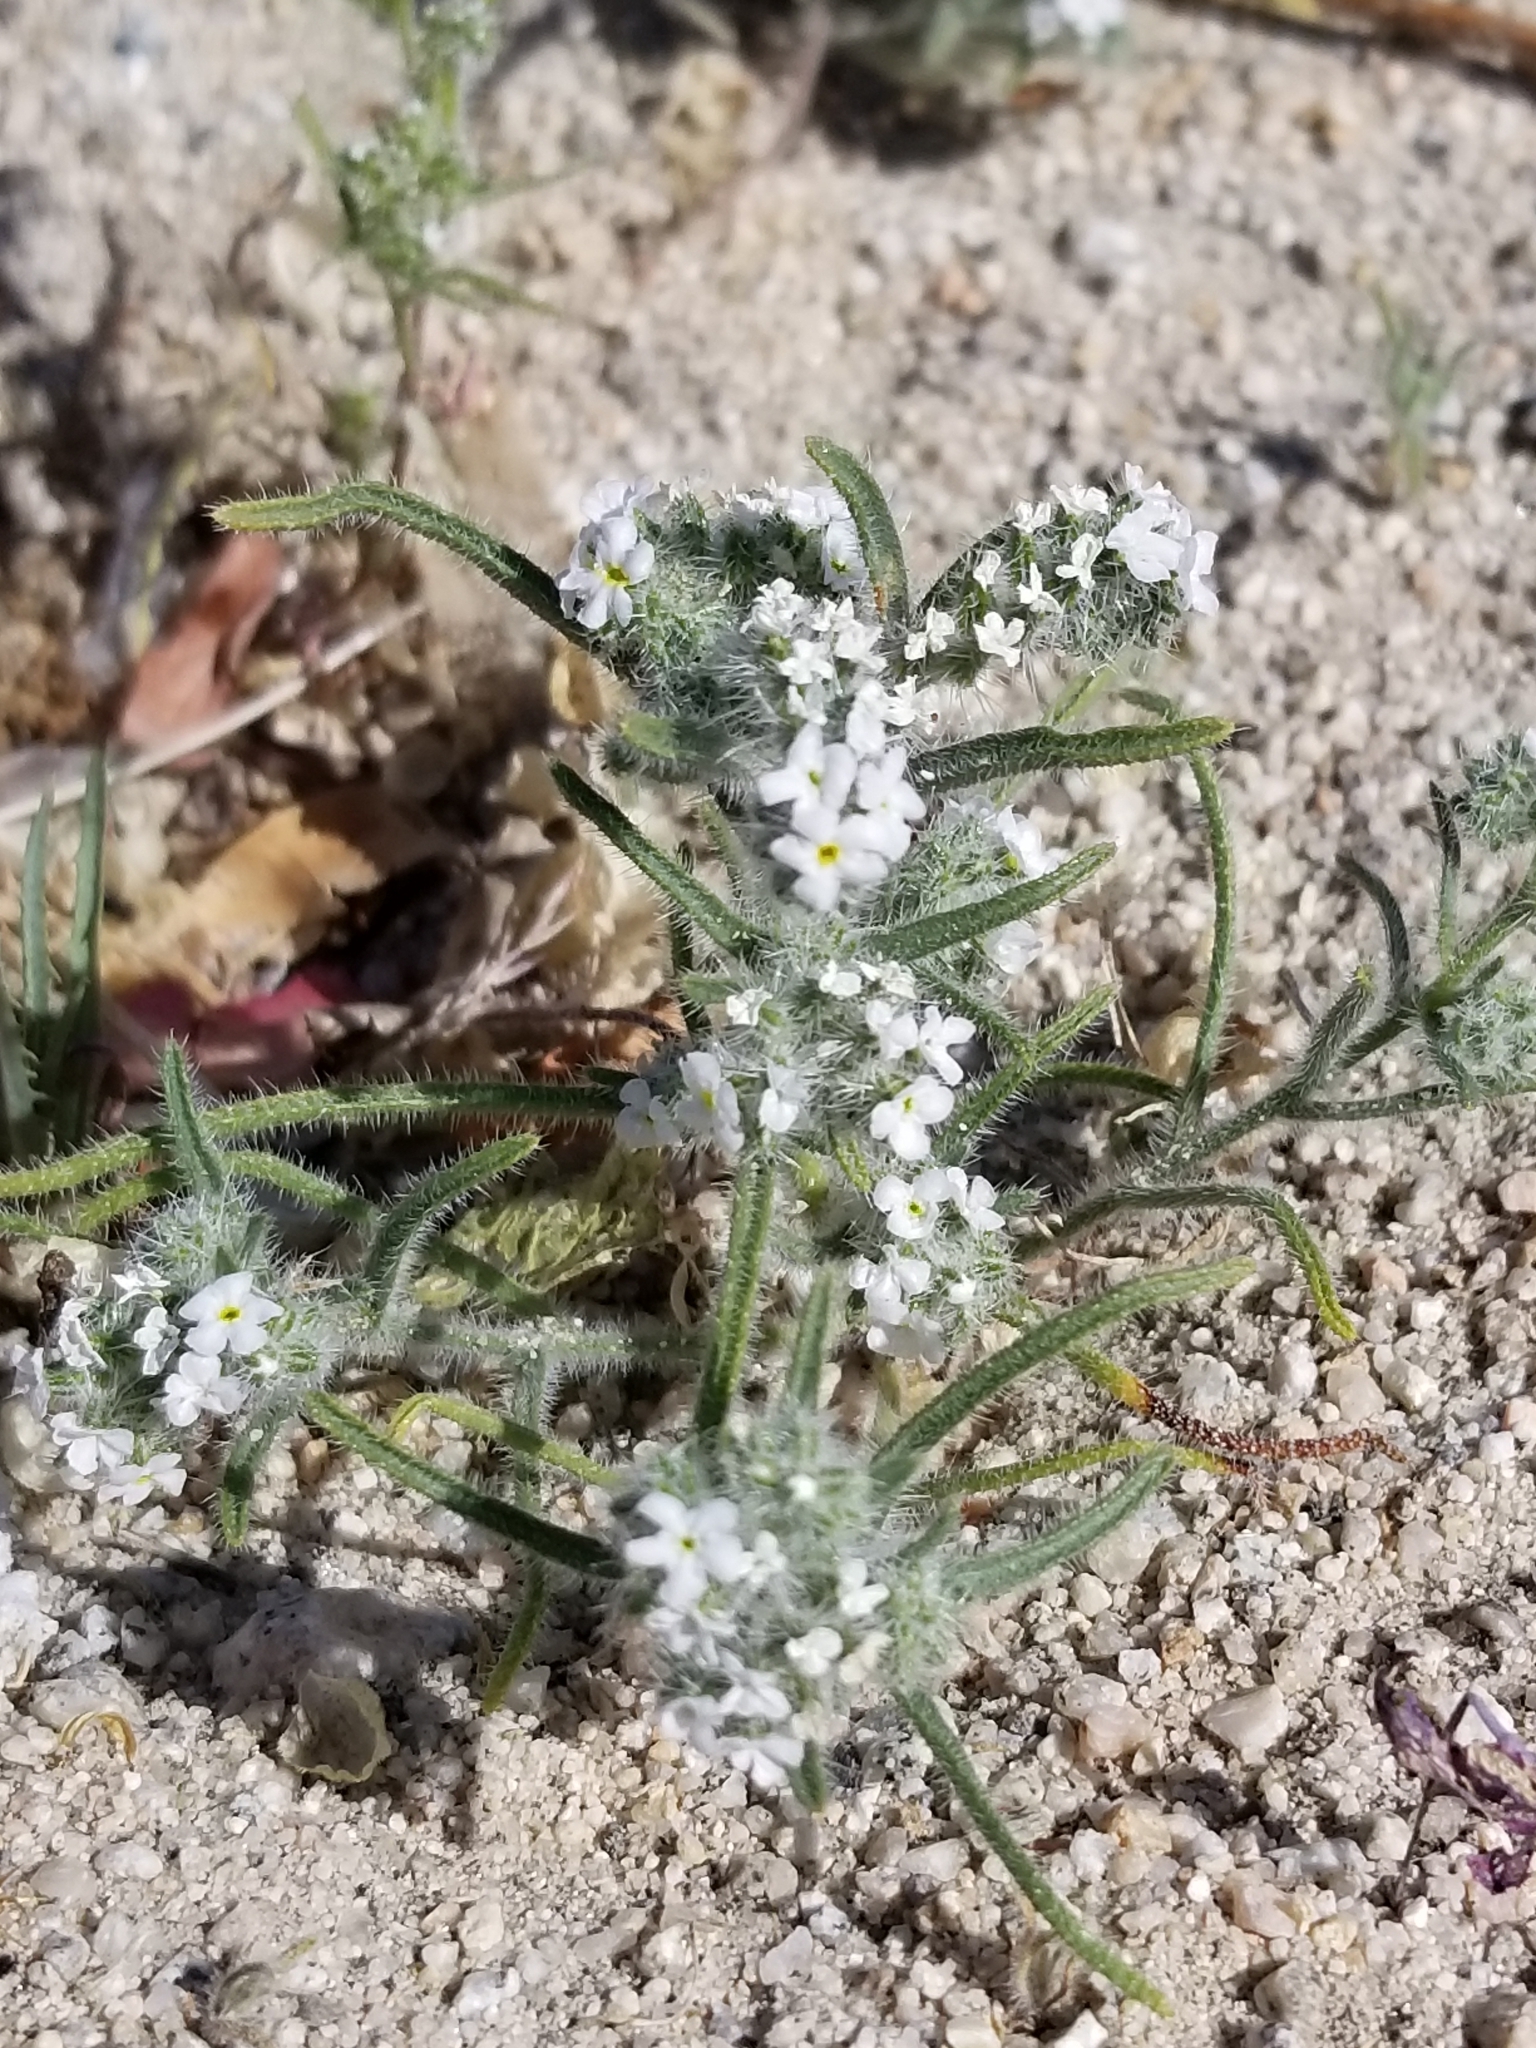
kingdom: Plantae
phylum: Tracheophyta
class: Magnoliopsida
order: Boraginales
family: Boraginaceae
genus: Johnstonella
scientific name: Johnstonella angustifolia
